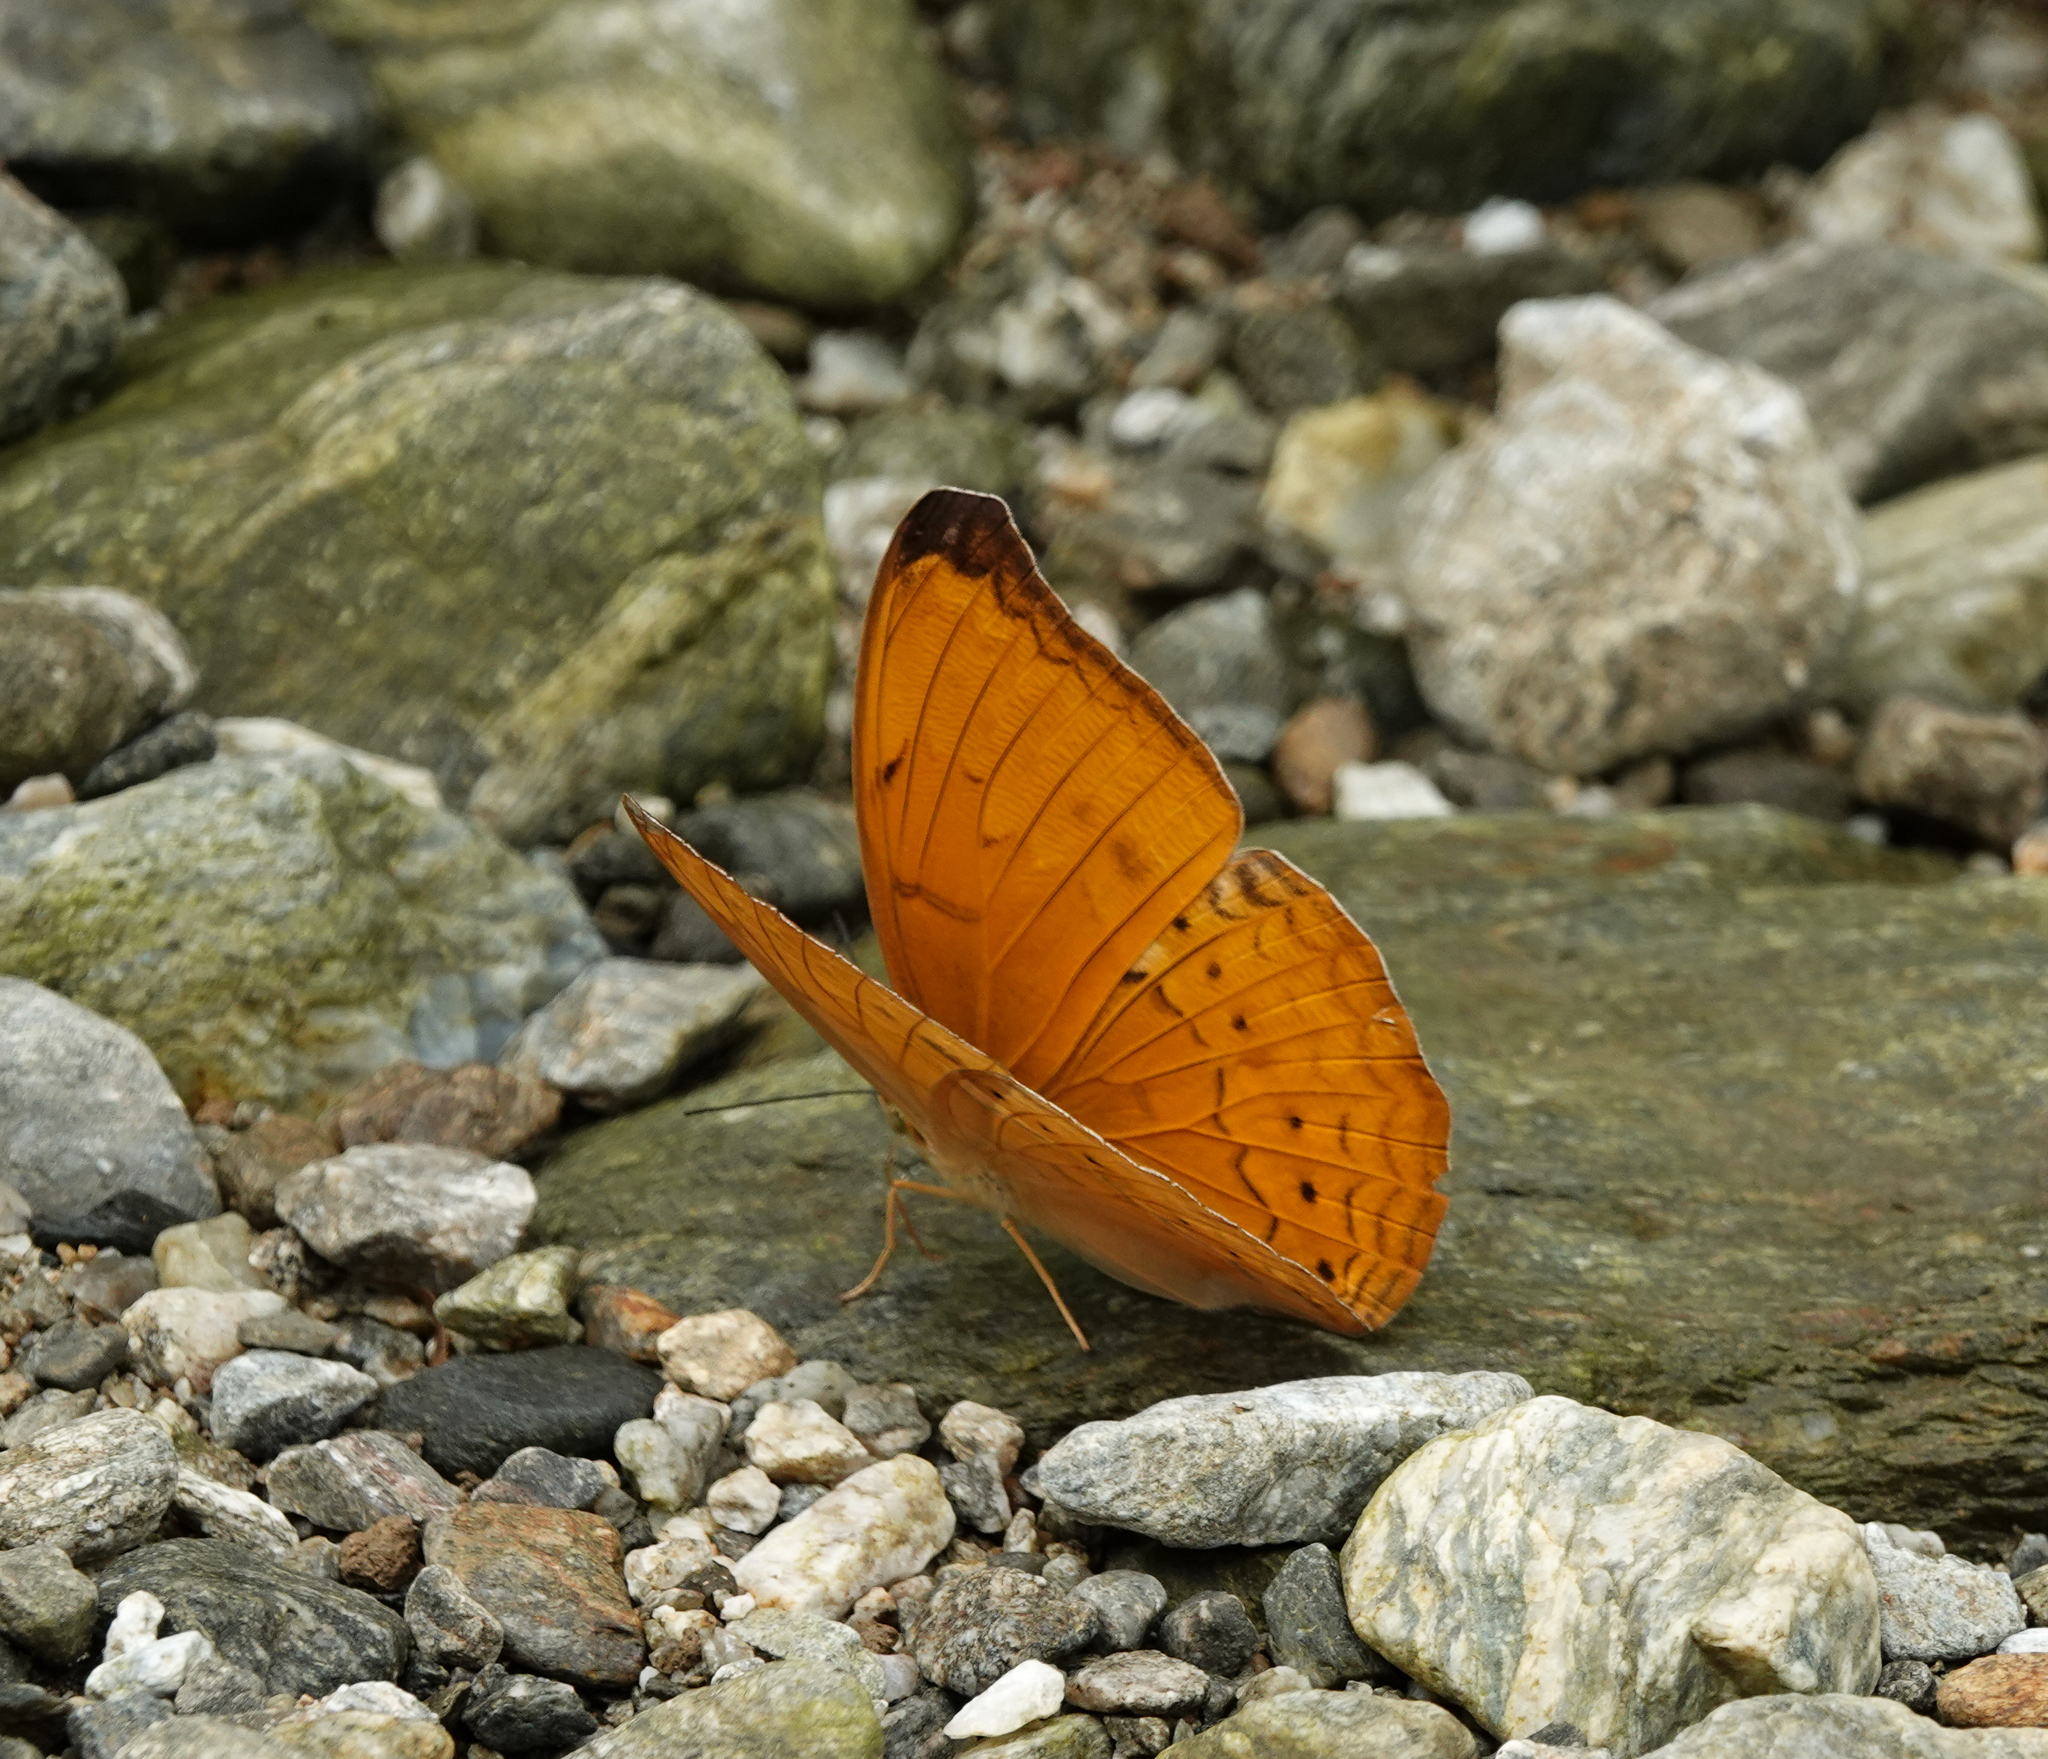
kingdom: Animalia
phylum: Arthropoda
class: Insecta
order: Lepidoptera
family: Nymphalidae
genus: Cirrochroa
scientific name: Cirrochroa aoris
